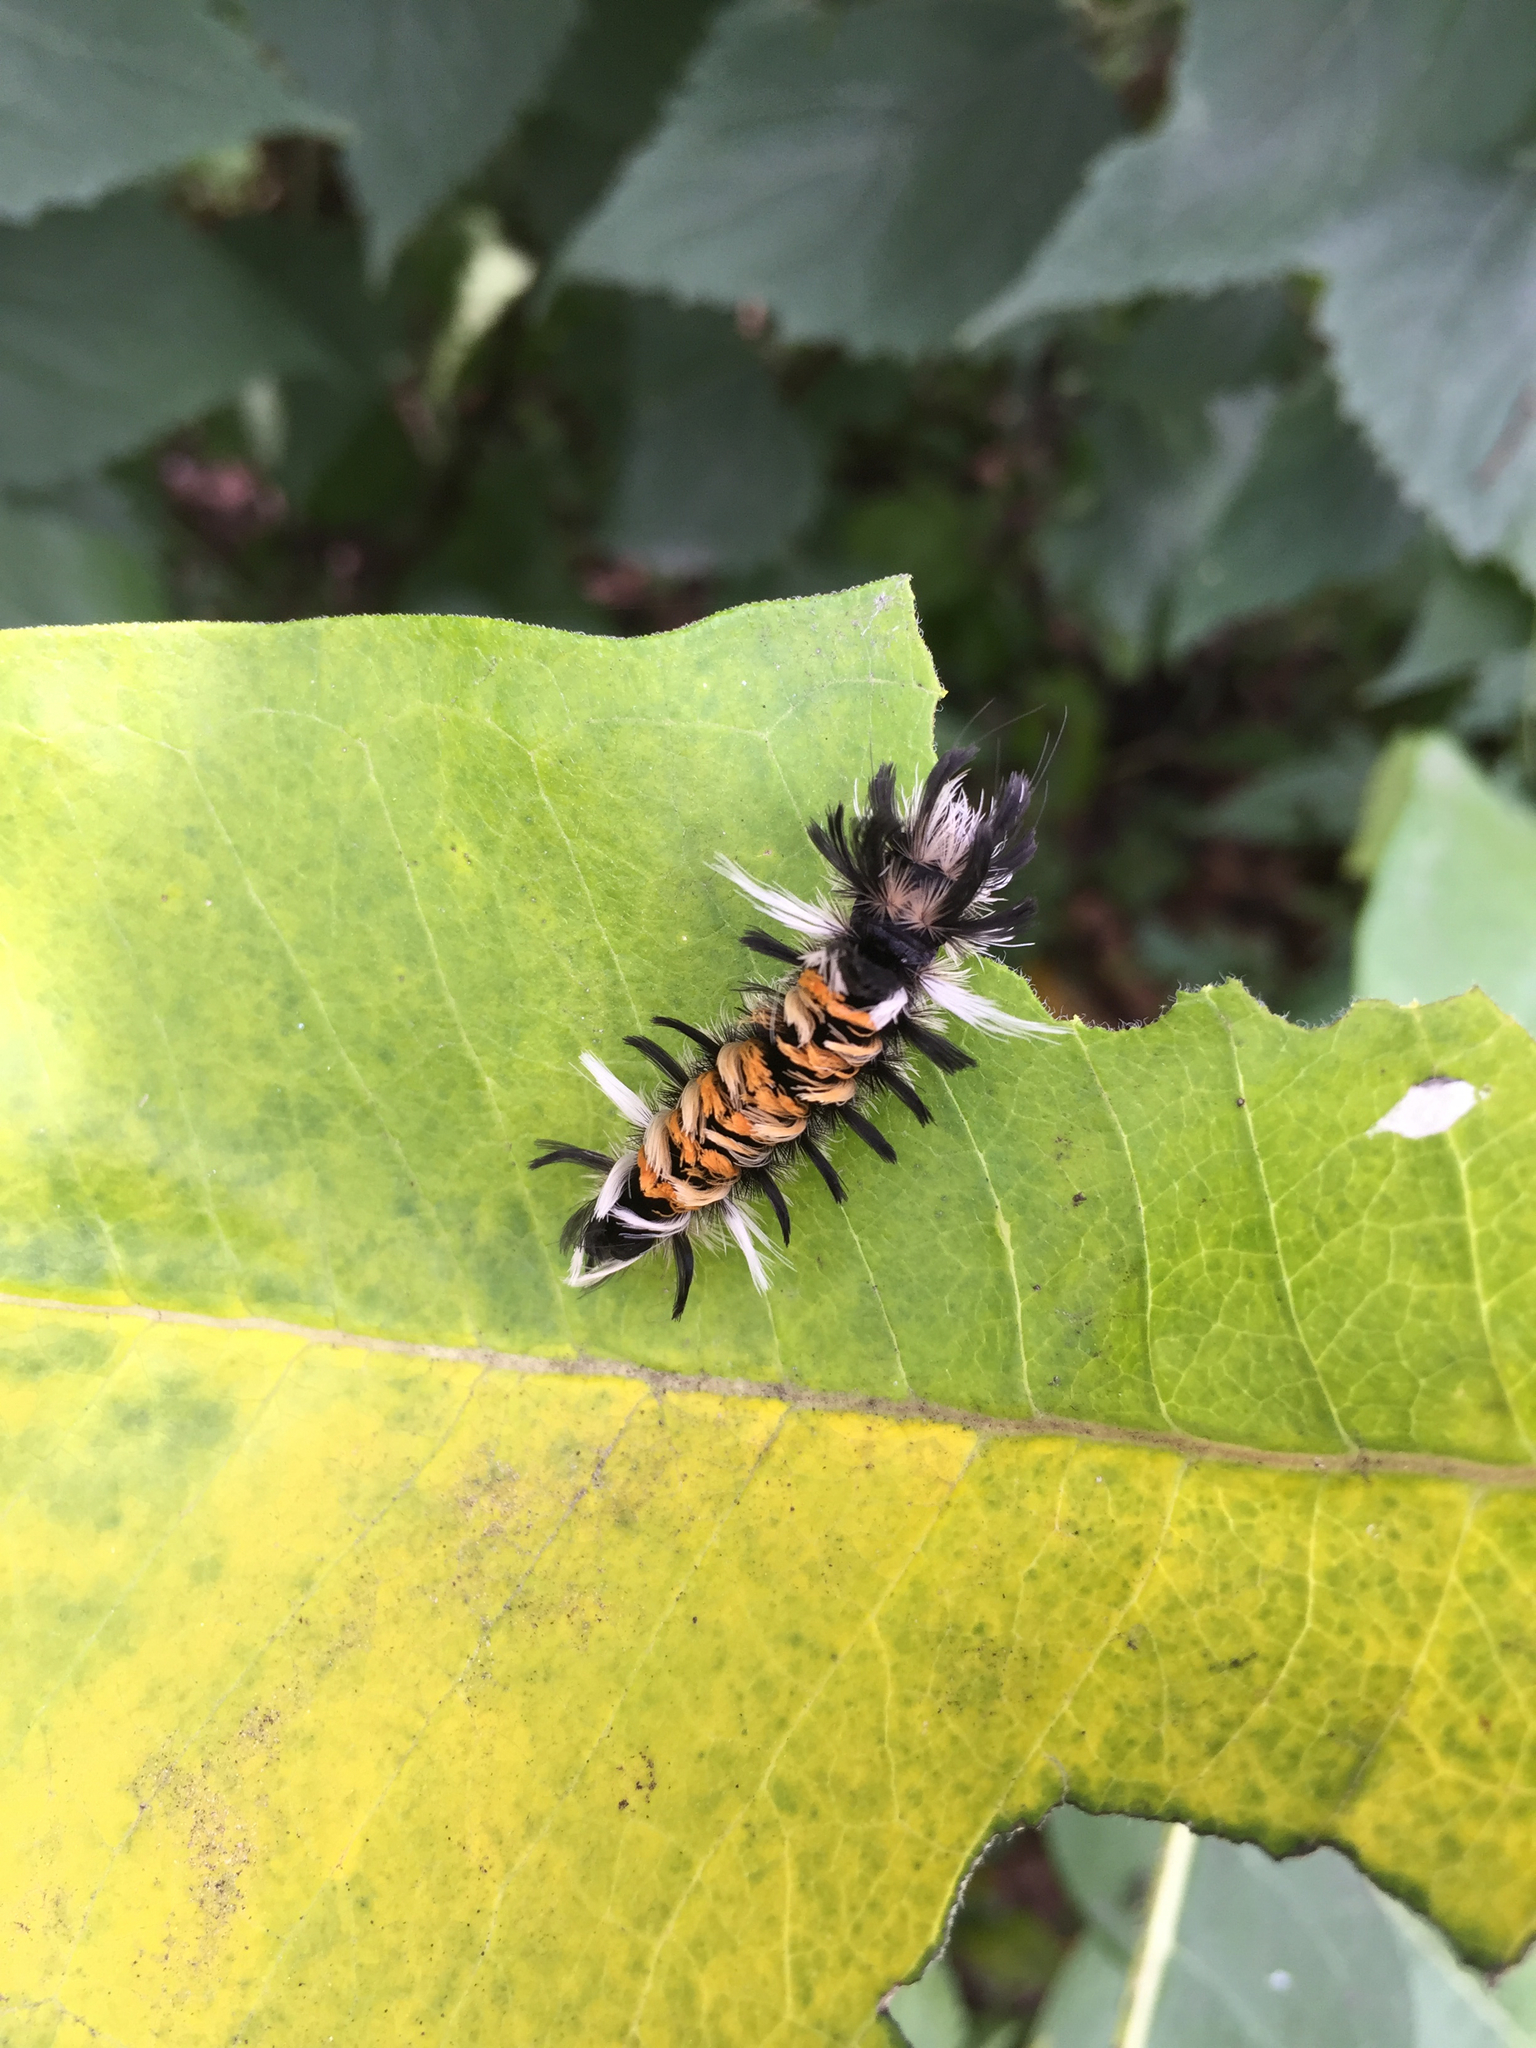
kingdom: Animalia
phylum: Arthropoda
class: Insecta
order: Lepidoptera
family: Erebidae
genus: Euchaetes
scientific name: Euchaetes egle
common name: Milkweed tussock moth
